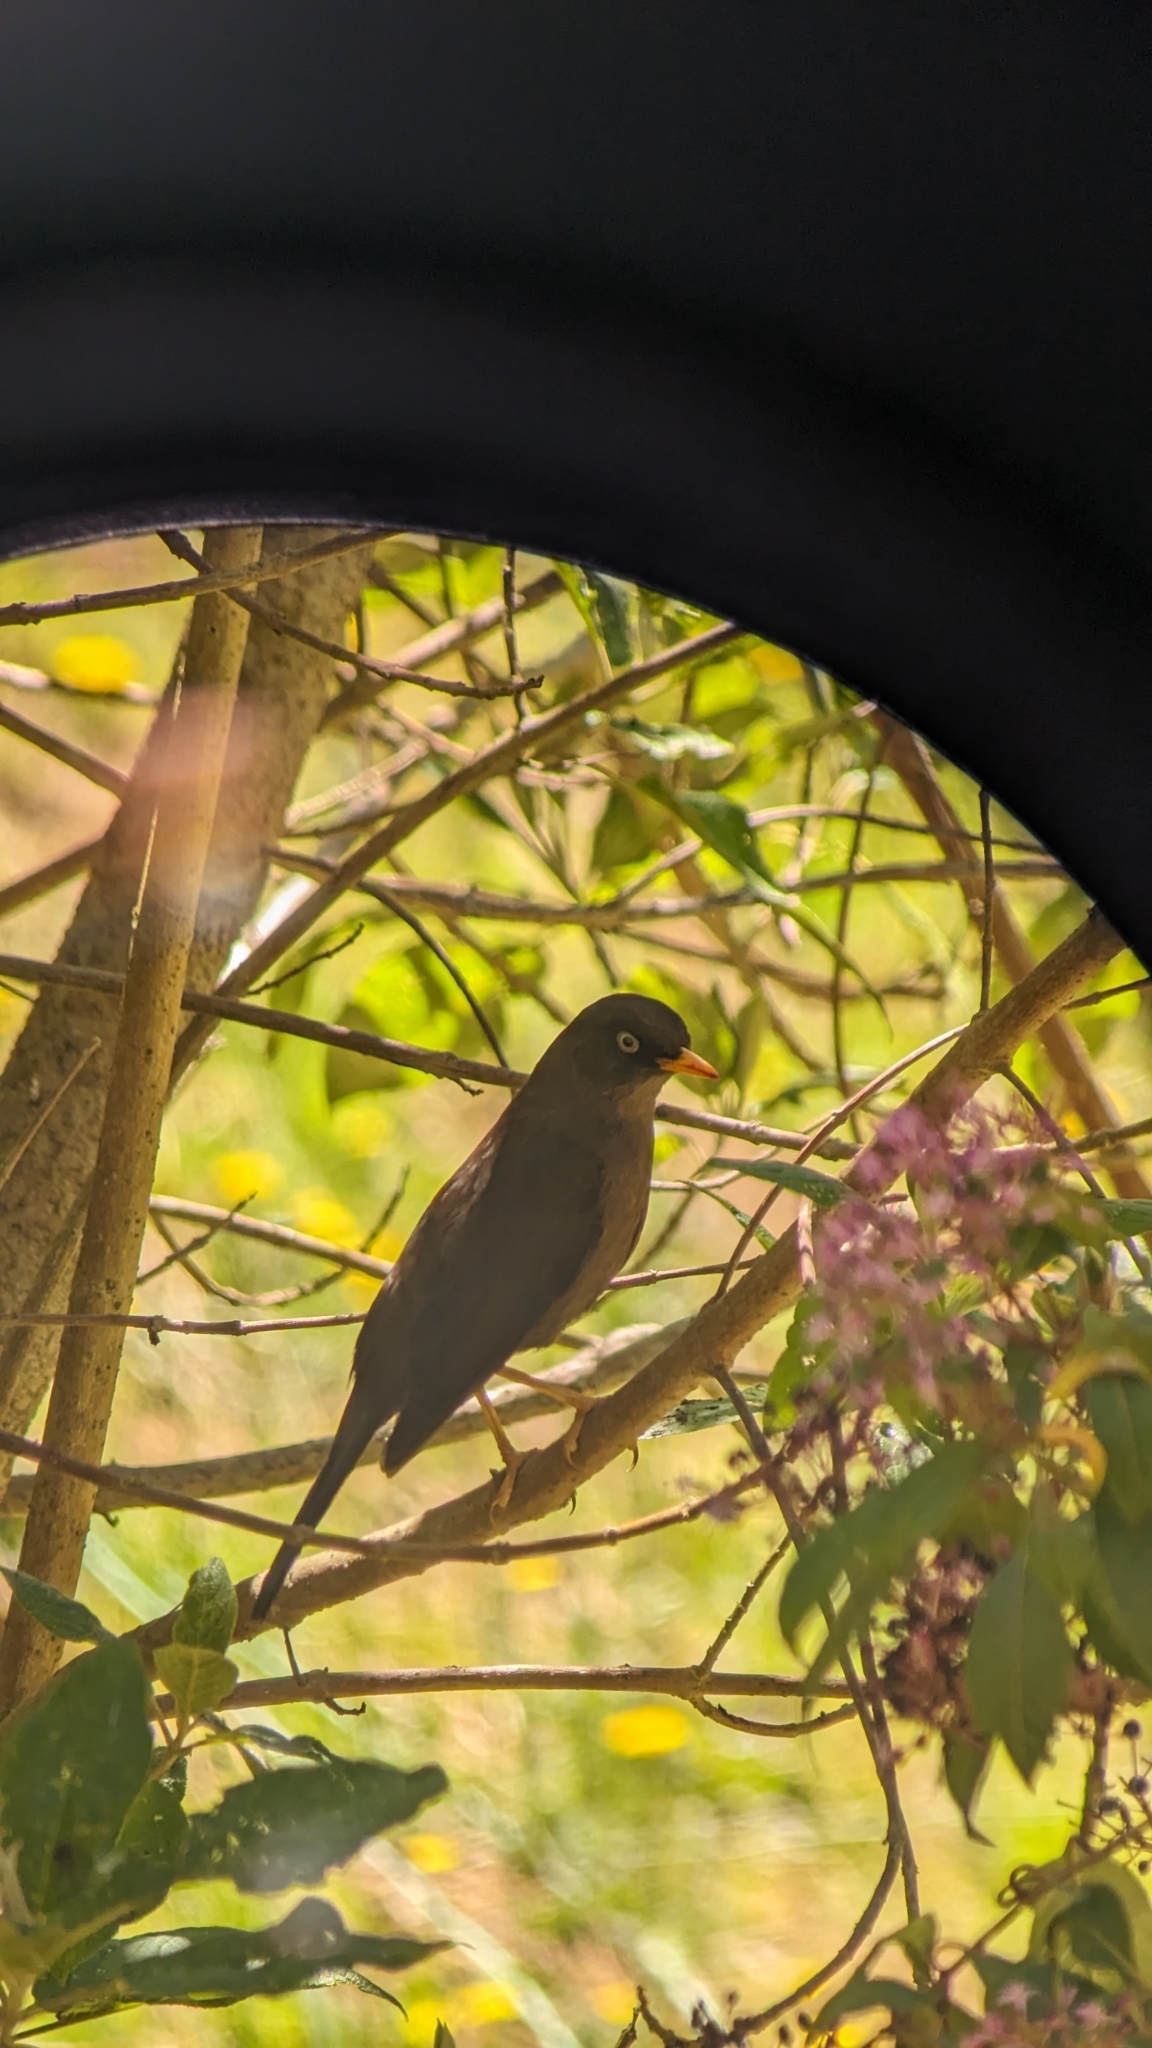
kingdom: Animalia
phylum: Chordata
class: Aves
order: Passeriformes
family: Turdidae
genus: Turdus
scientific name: Turdus nigrescens
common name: Sooty thrush
